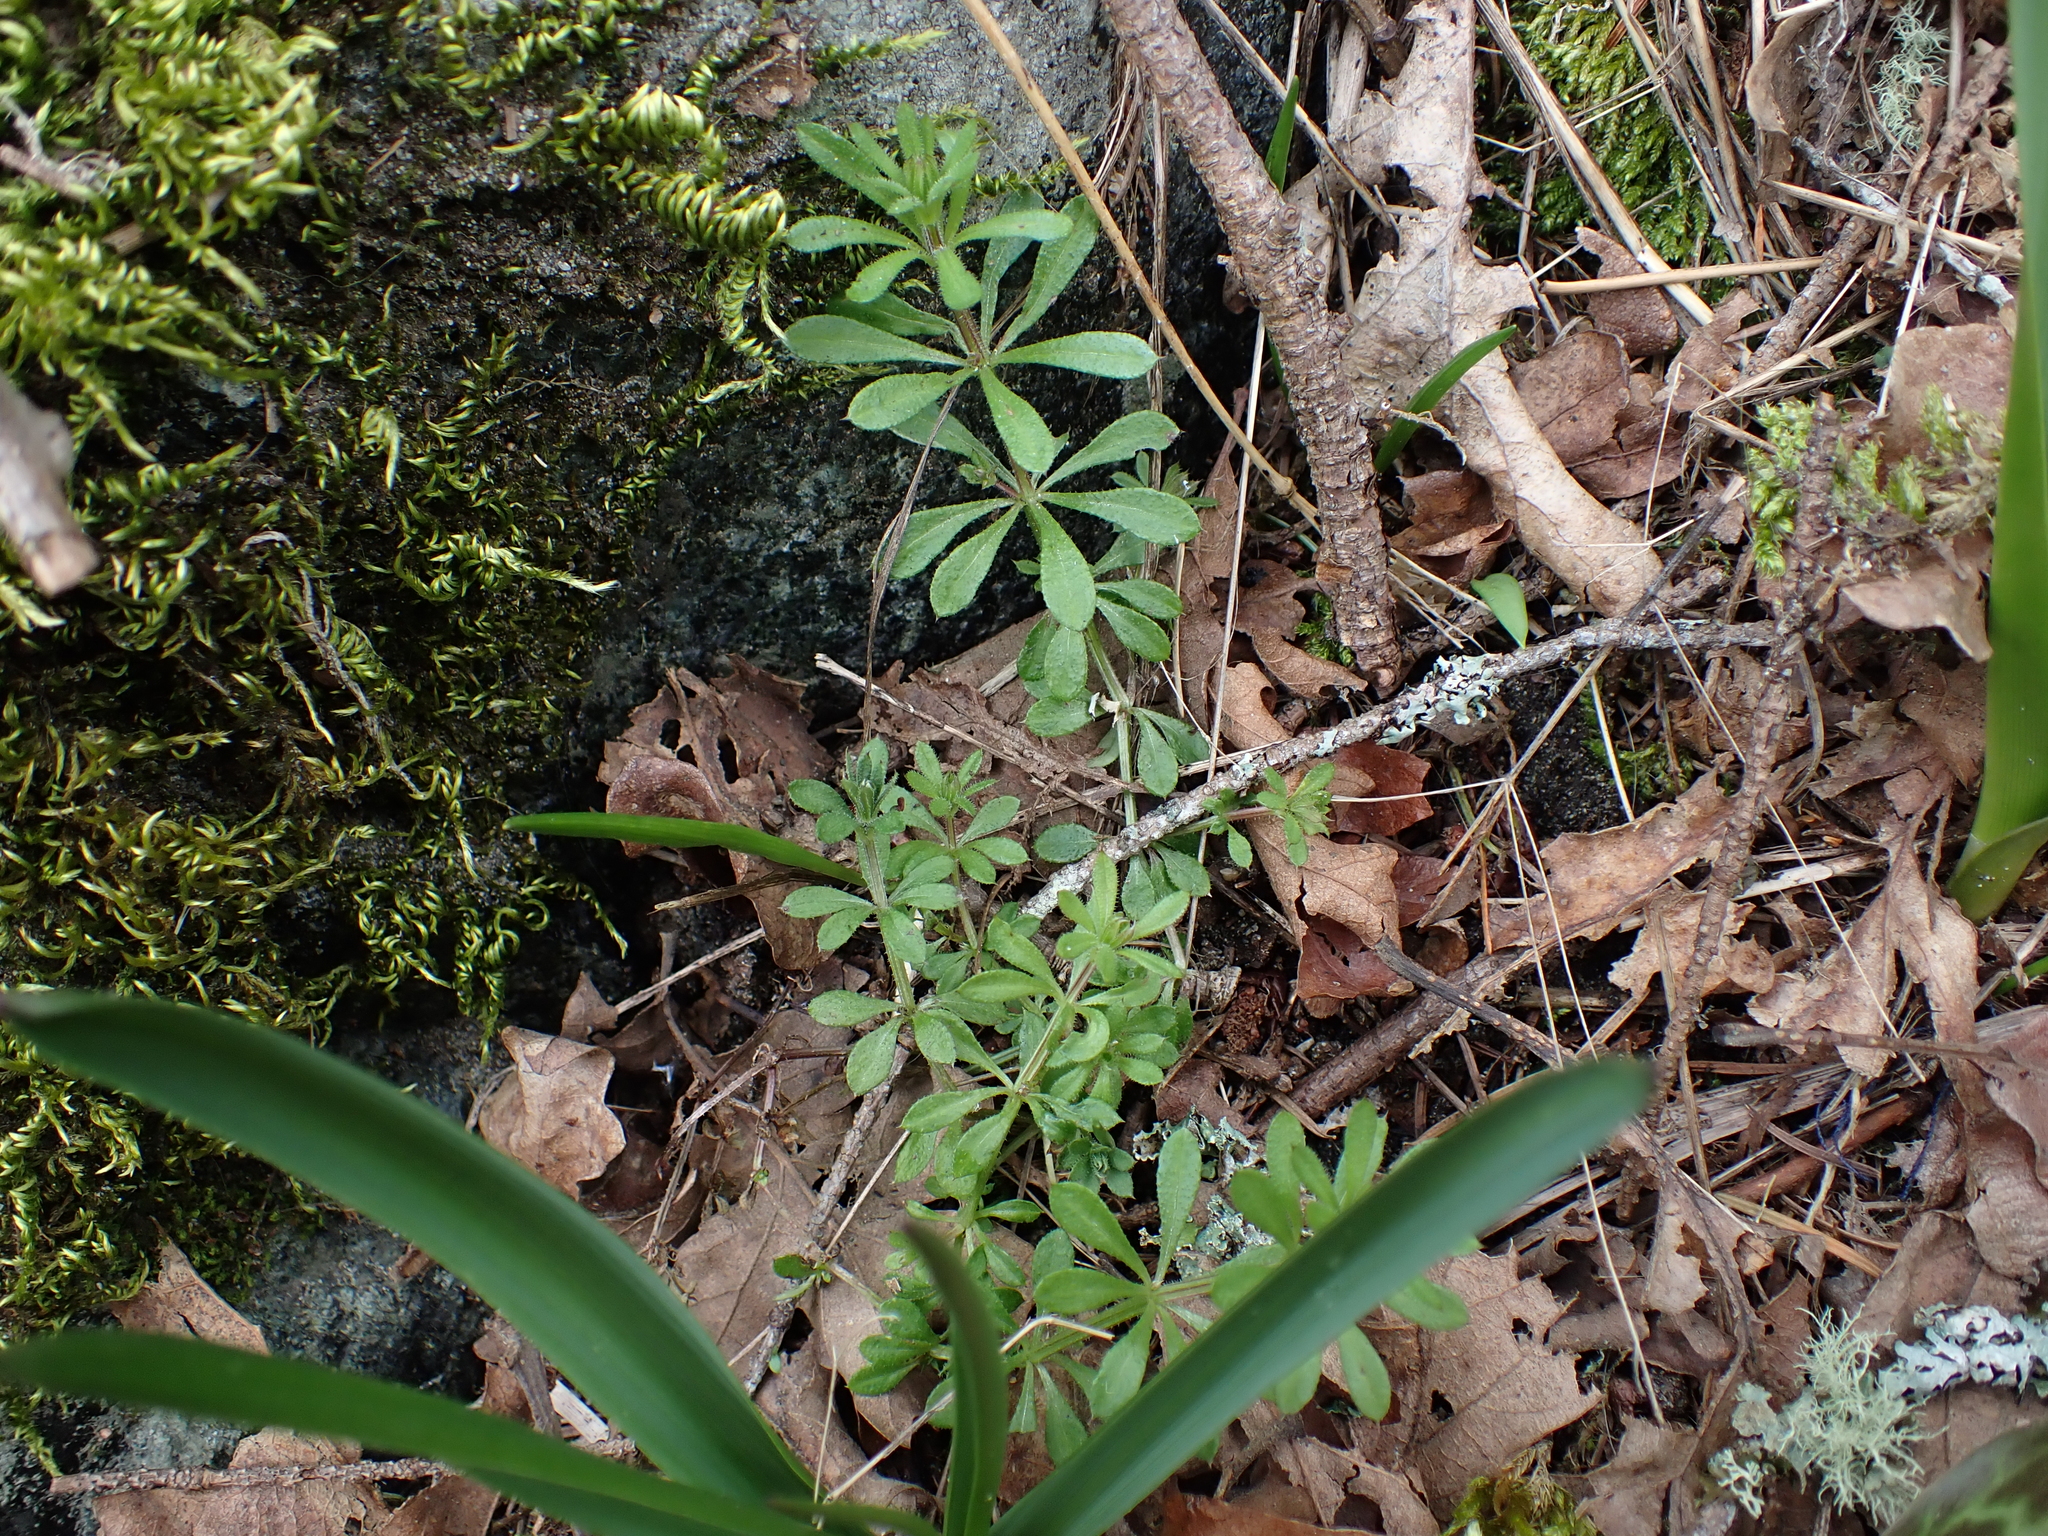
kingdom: Plantae
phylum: Tracheophyta
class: Magnoliopsida
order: Gentianales
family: Rubiaceae
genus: Galium
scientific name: Galium aparine
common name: Cleavers
